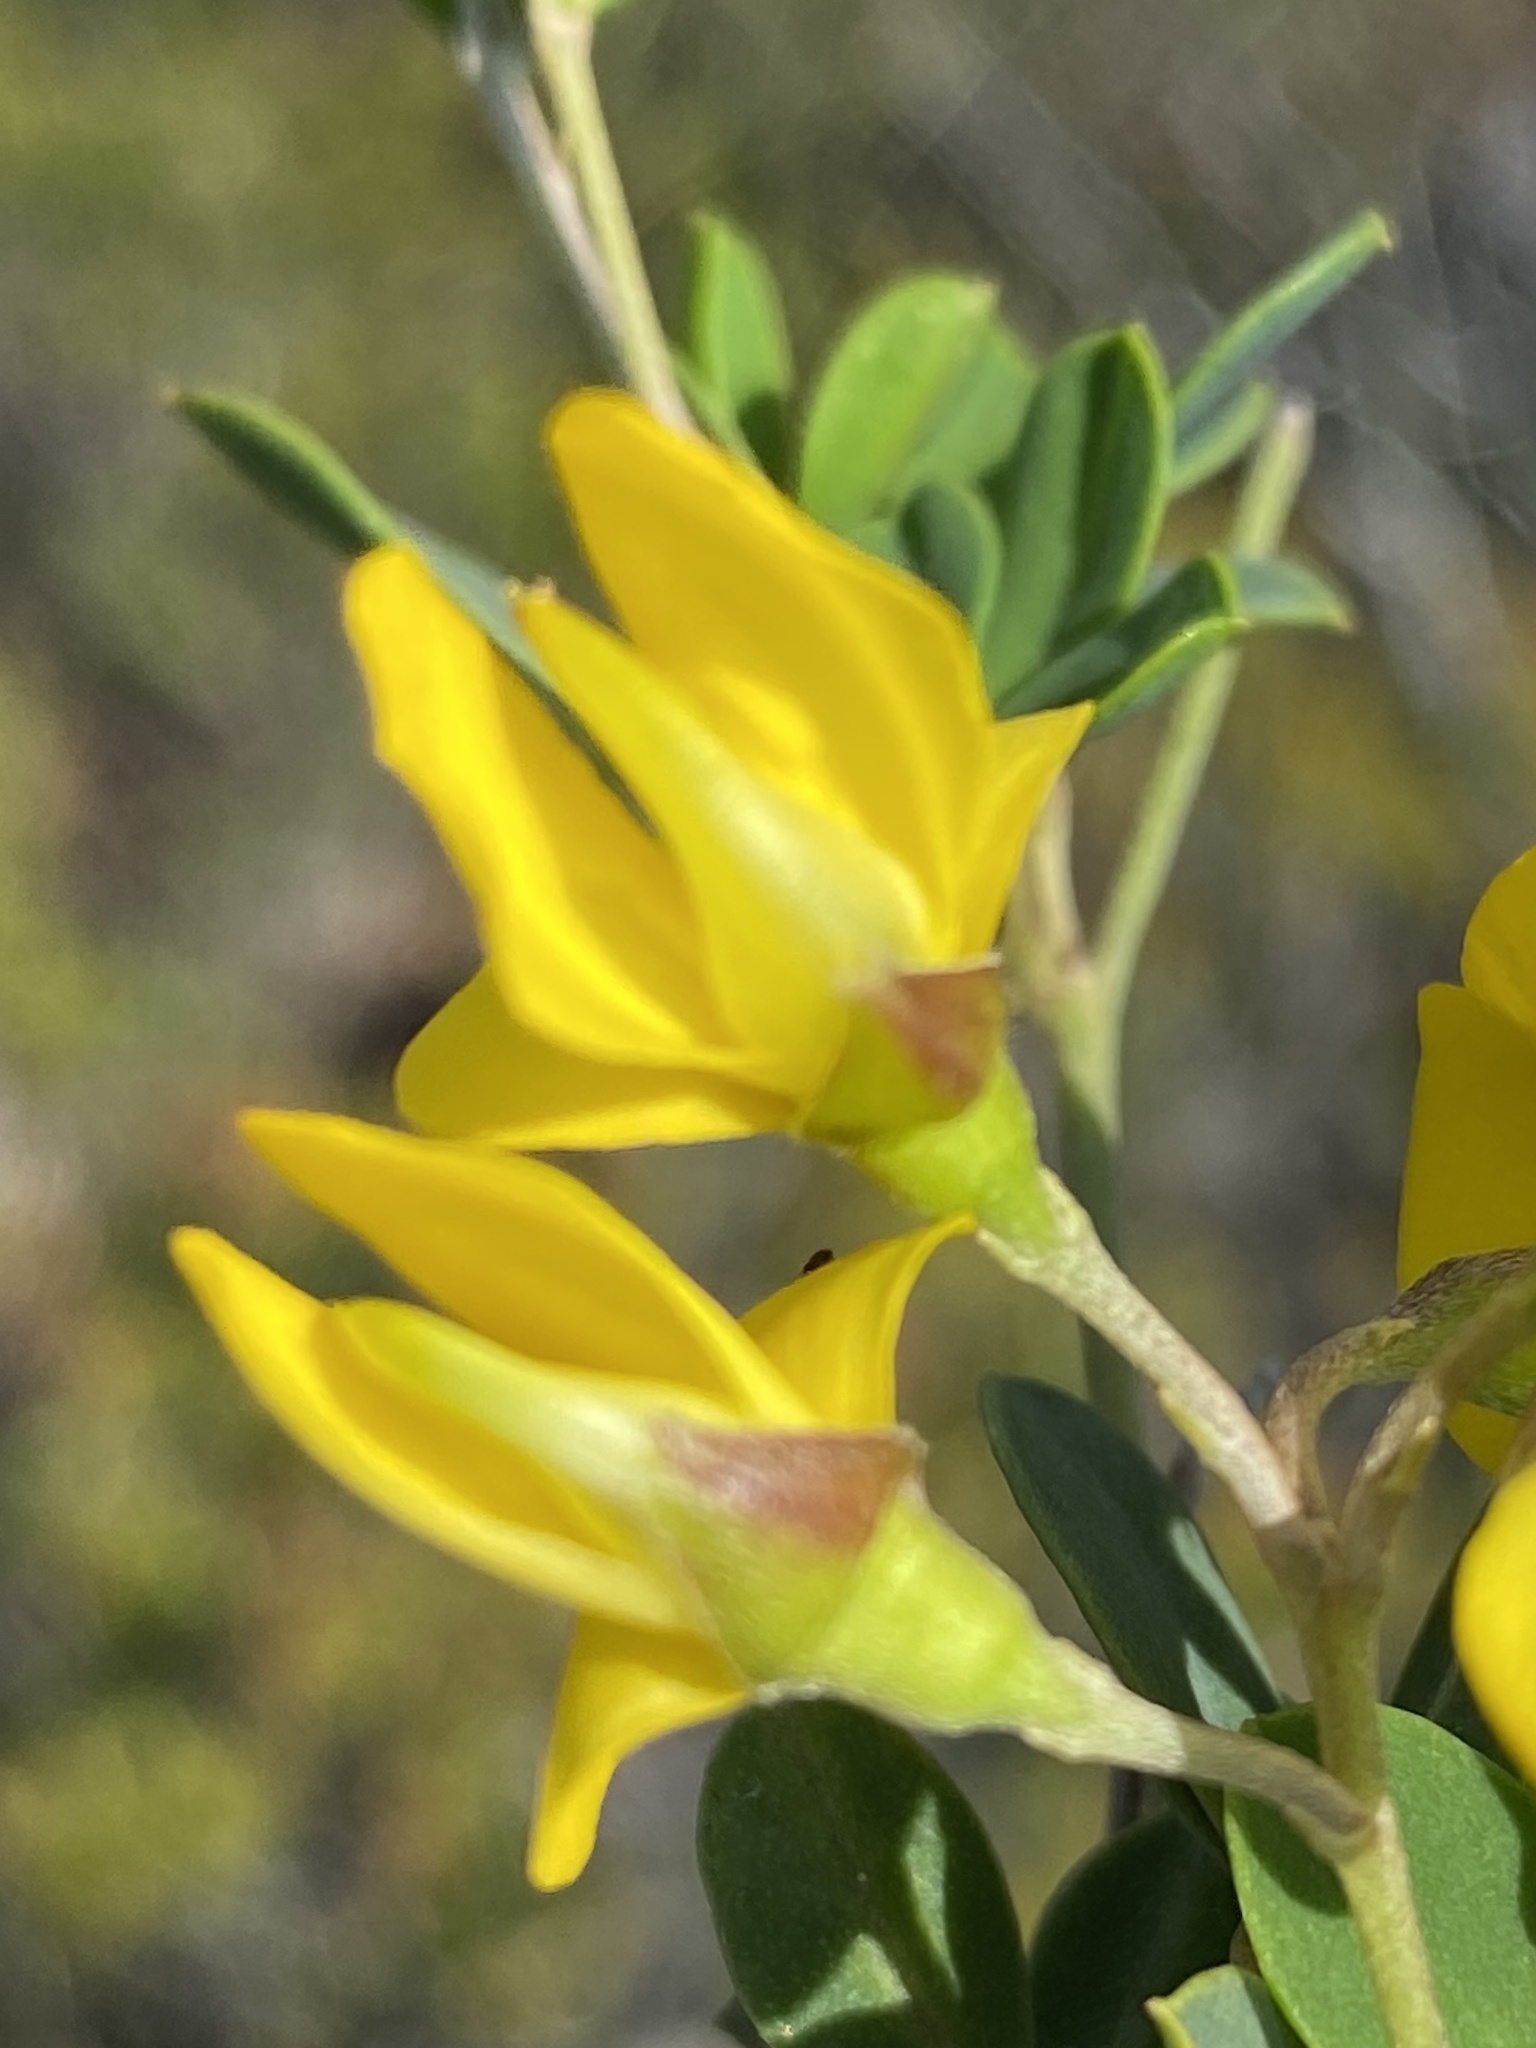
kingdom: Plantae
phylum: Tracheophyta
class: Magnoliopsida
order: Fabales
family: Fabaceae
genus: Argyrolobium
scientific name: Argyrolobium crassifolium
